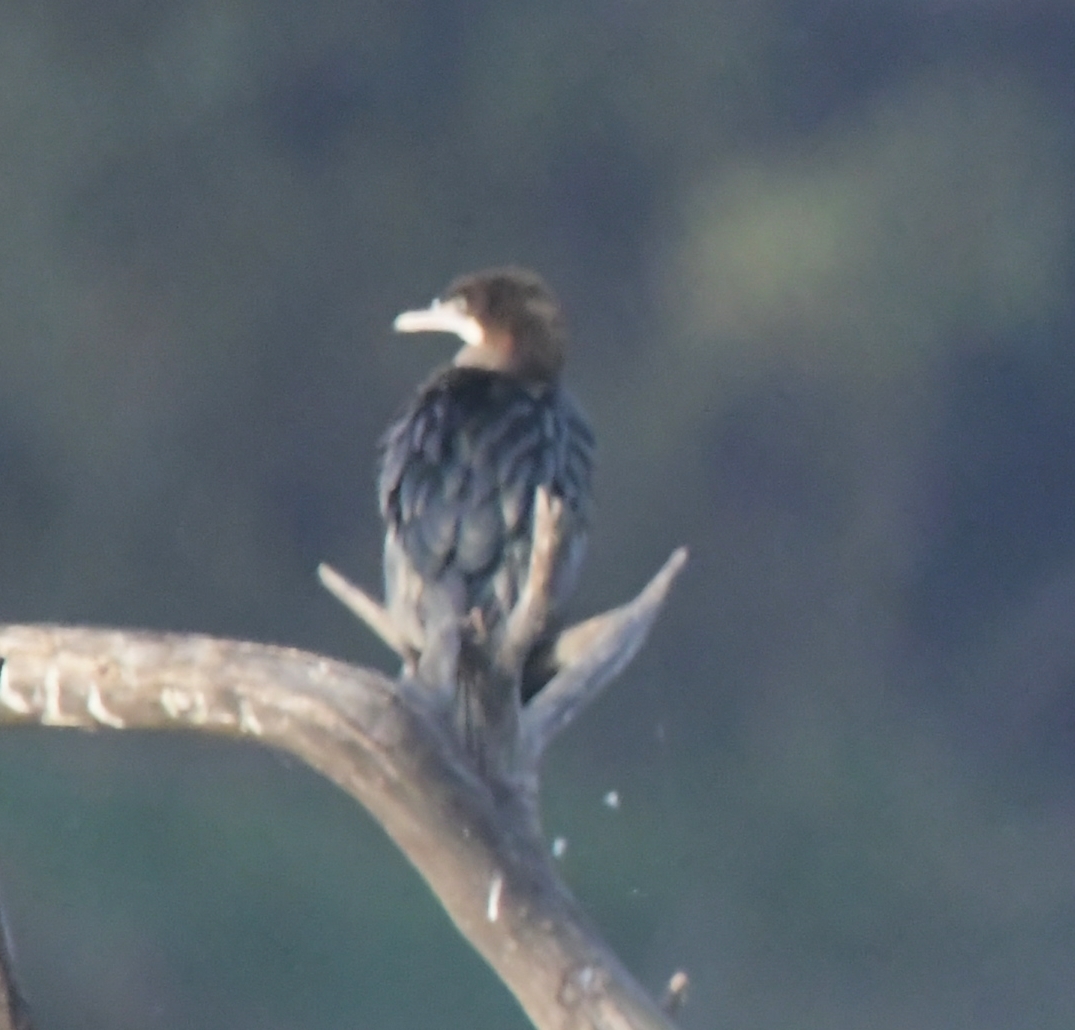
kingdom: Animalia
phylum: Chordata
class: Aves
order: Suliformes
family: Phalacrocoracidae
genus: Microcarbo
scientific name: Microcarbo niger
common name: Little cormorant
